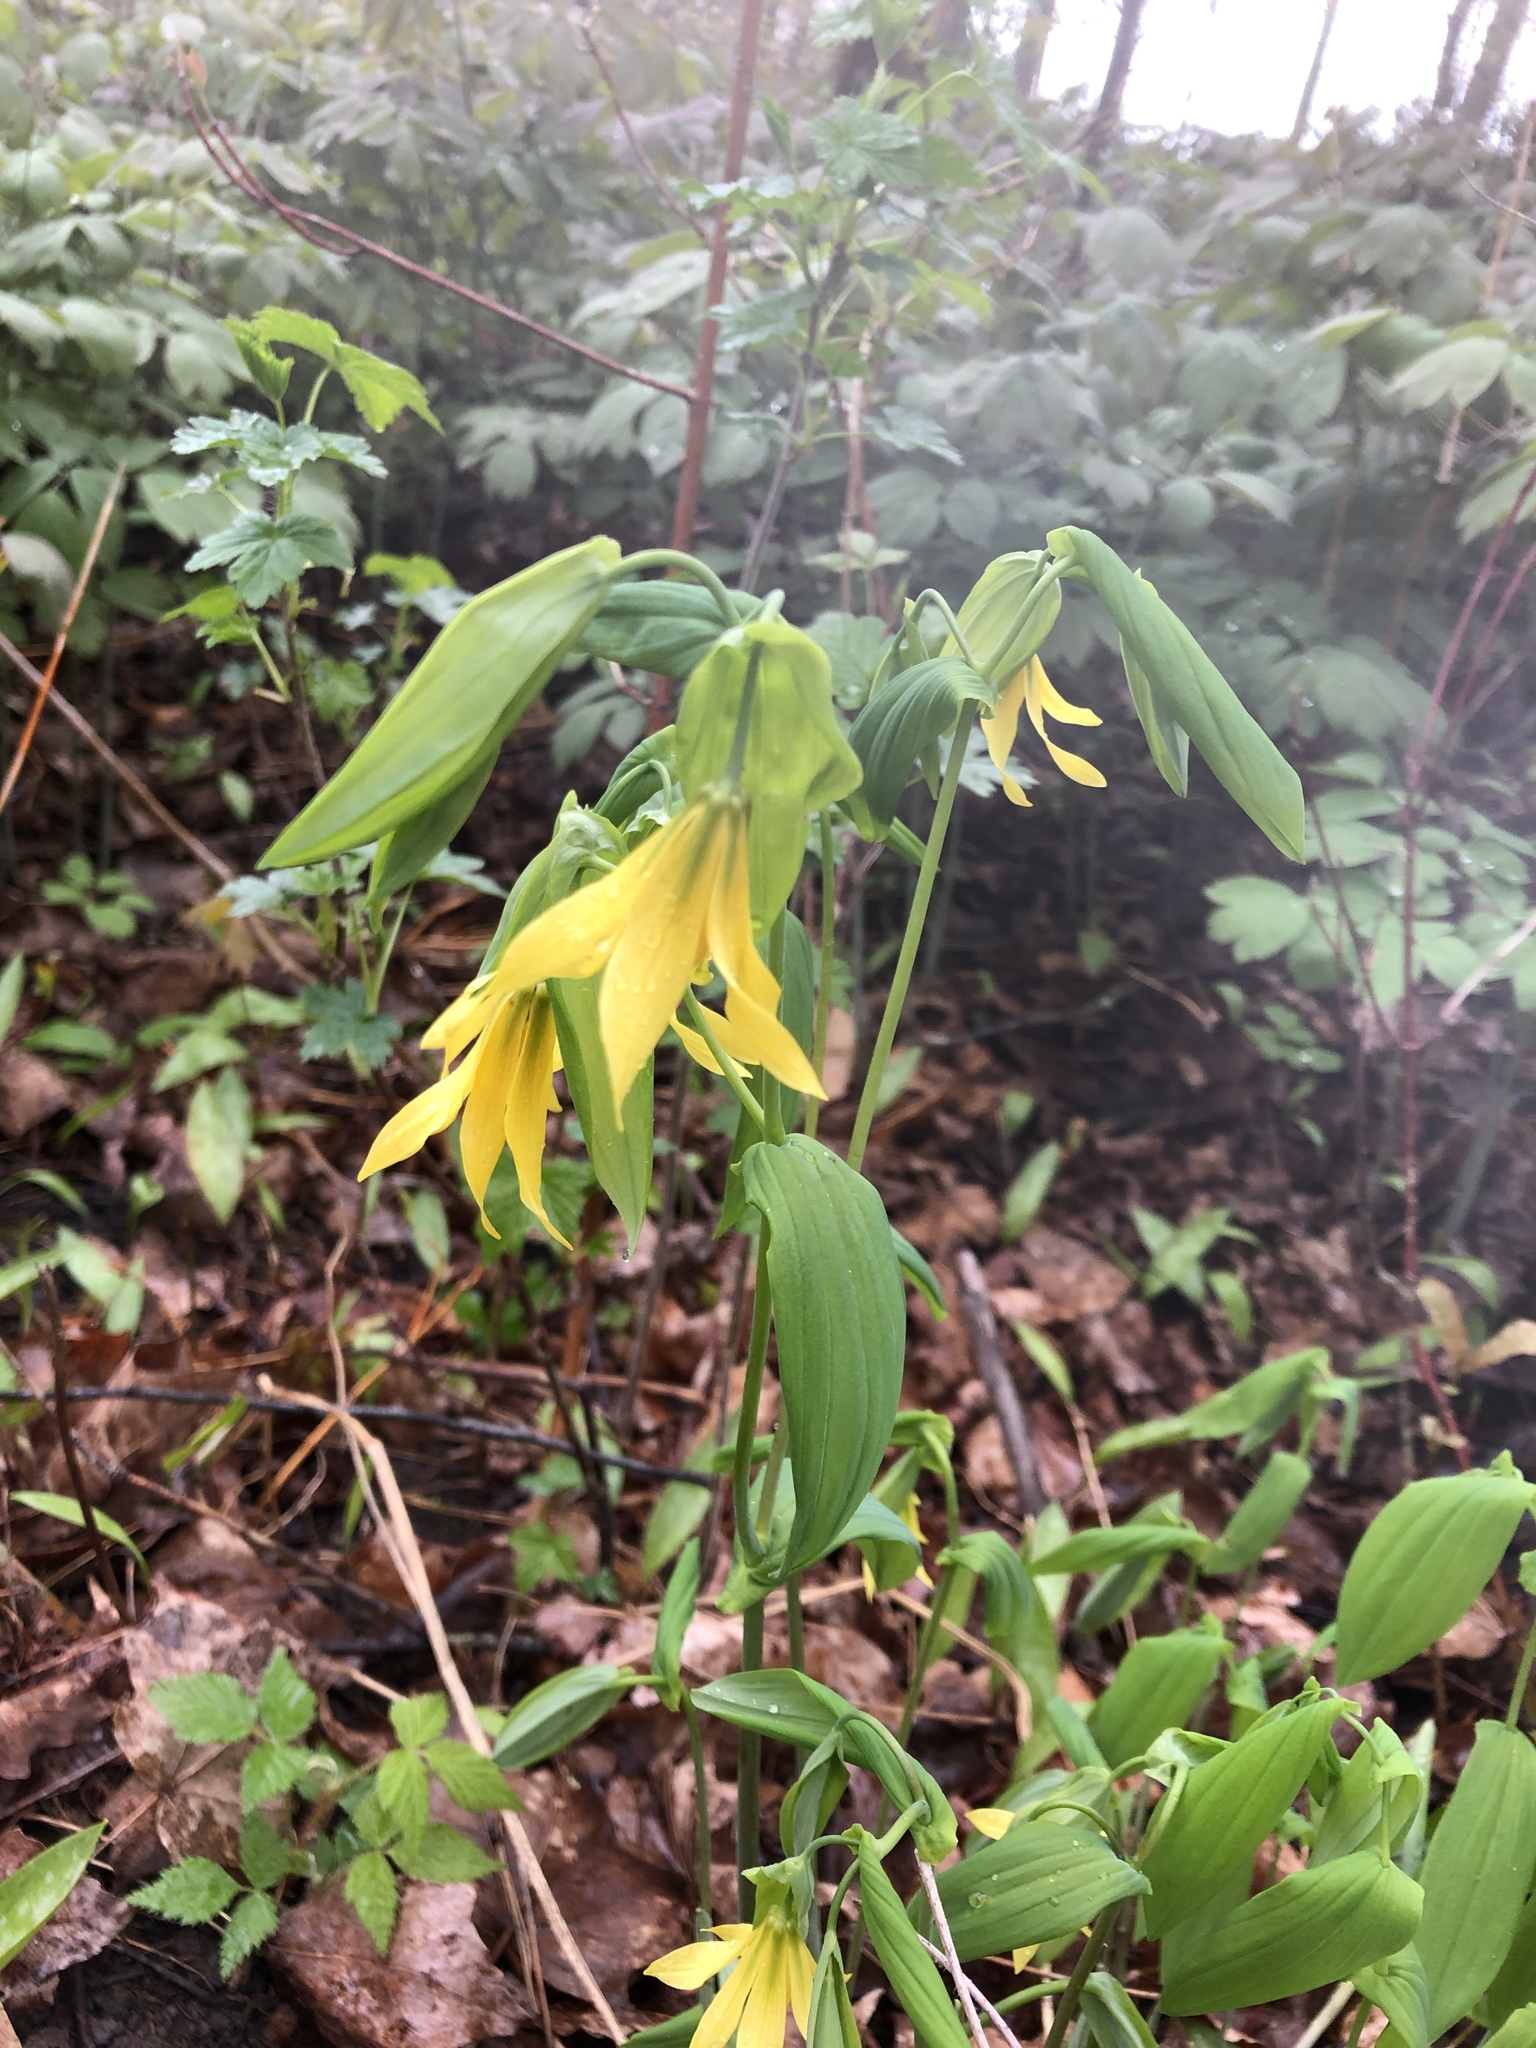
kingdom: Plantae
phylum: Tracheophyta
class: Liliopsida
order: Liliales
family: Colchicaceae
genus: Uvularia
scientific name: Uvularia grandiflora
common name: Bellwort
